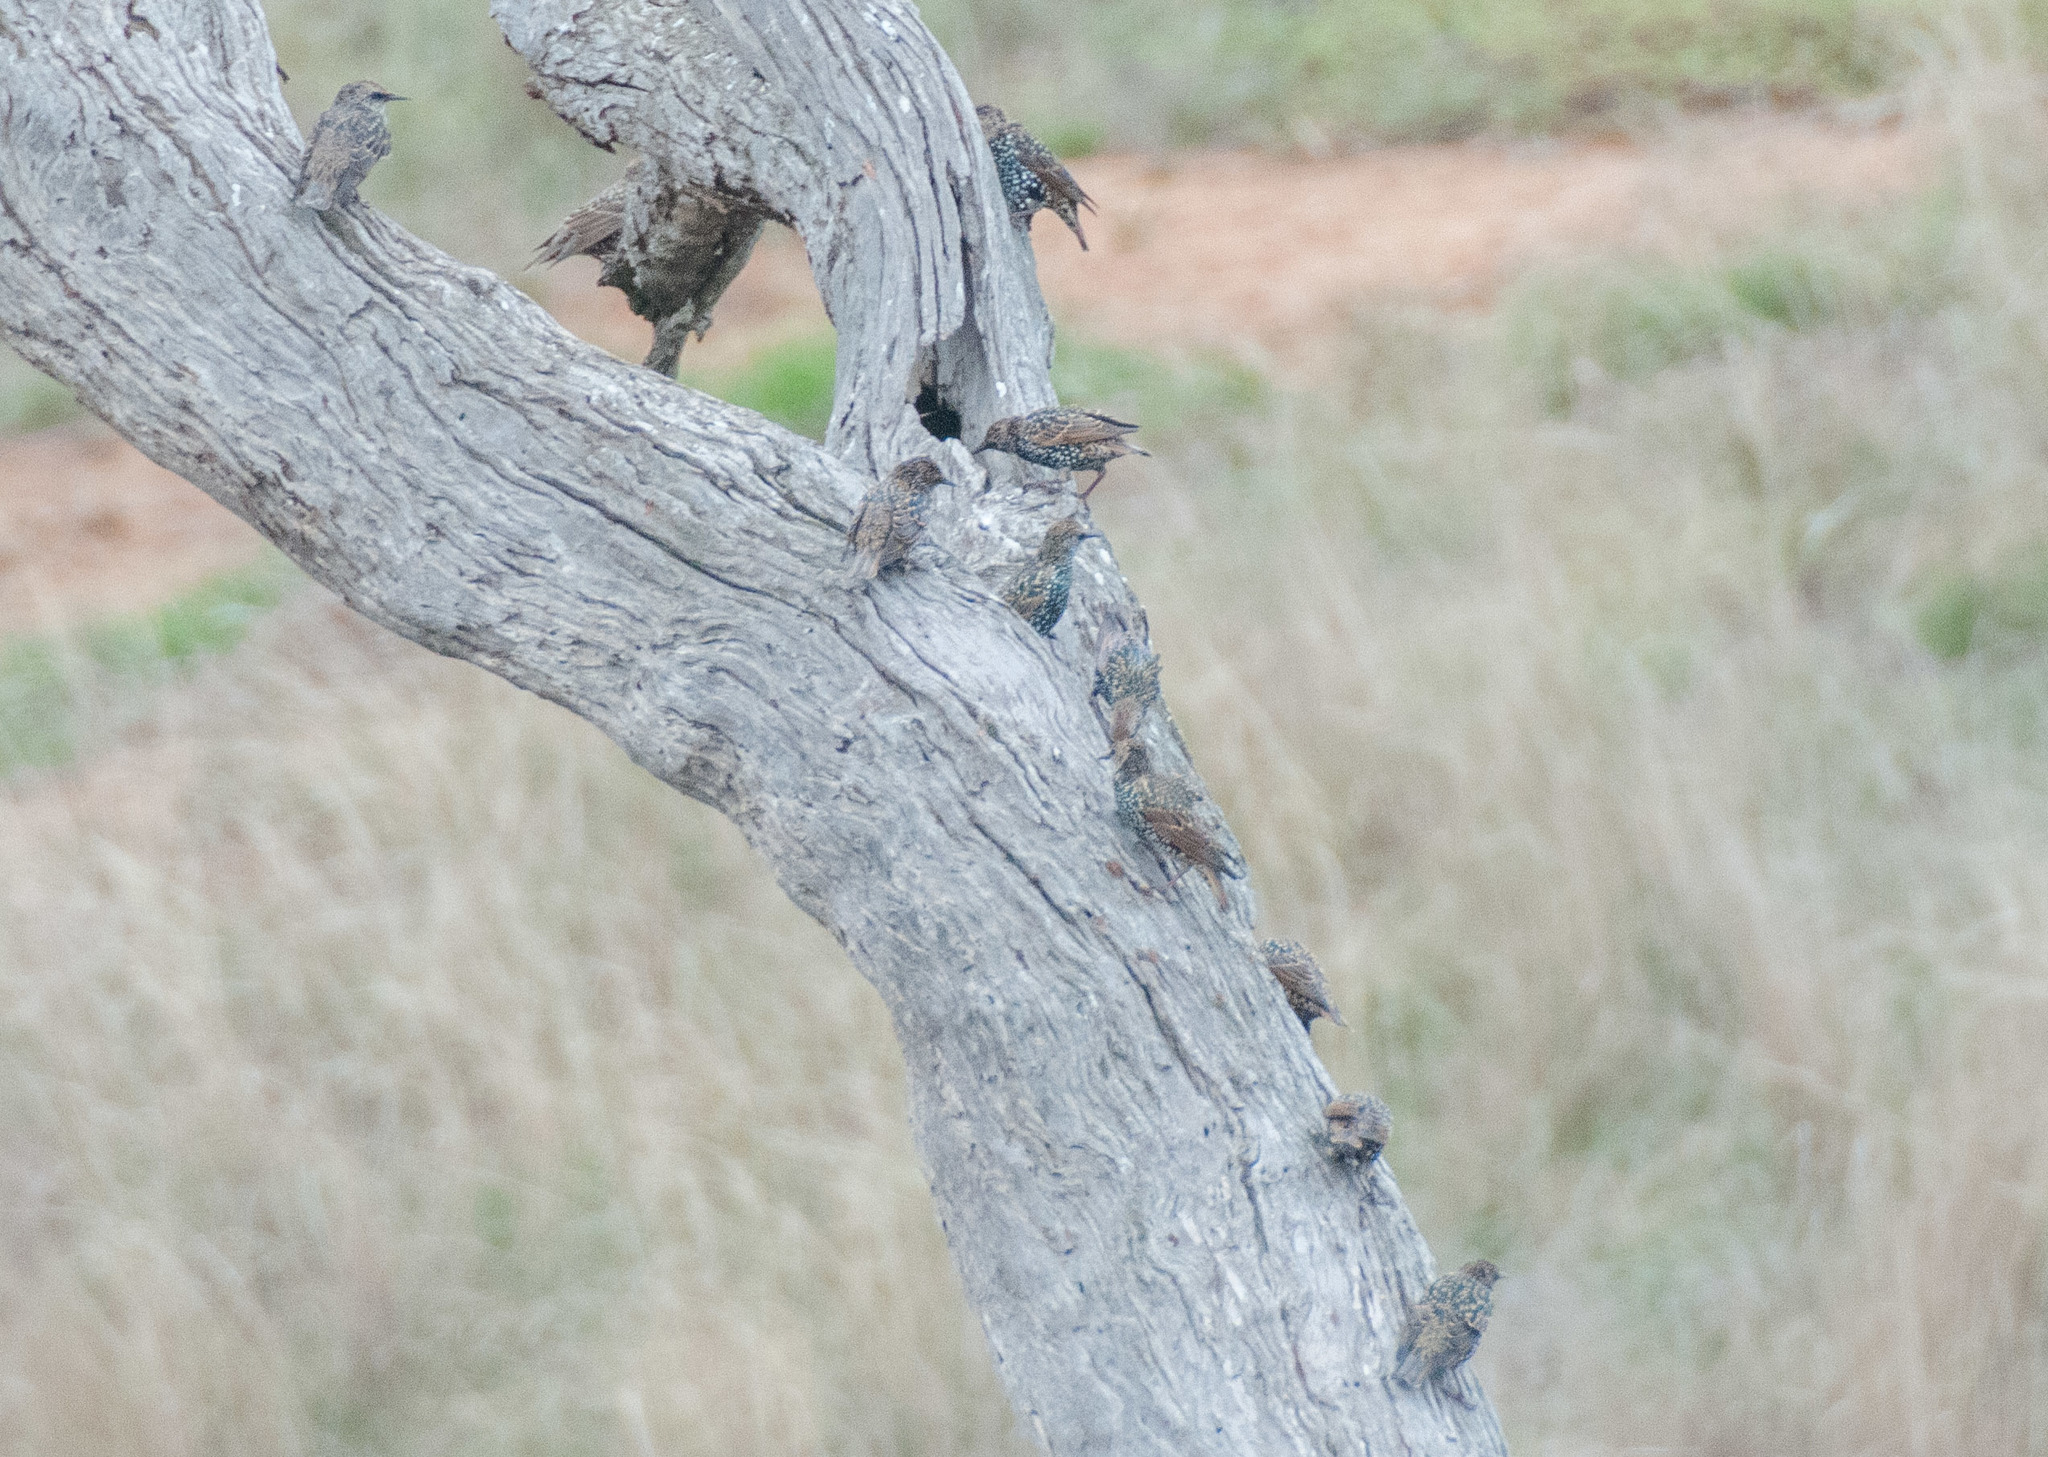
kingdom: Animalia
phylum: Chordata
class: Aves
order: Passeriformes
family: Sturnidae
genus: Sturnus
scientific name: Sturnus vulgaris
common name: Common starling
